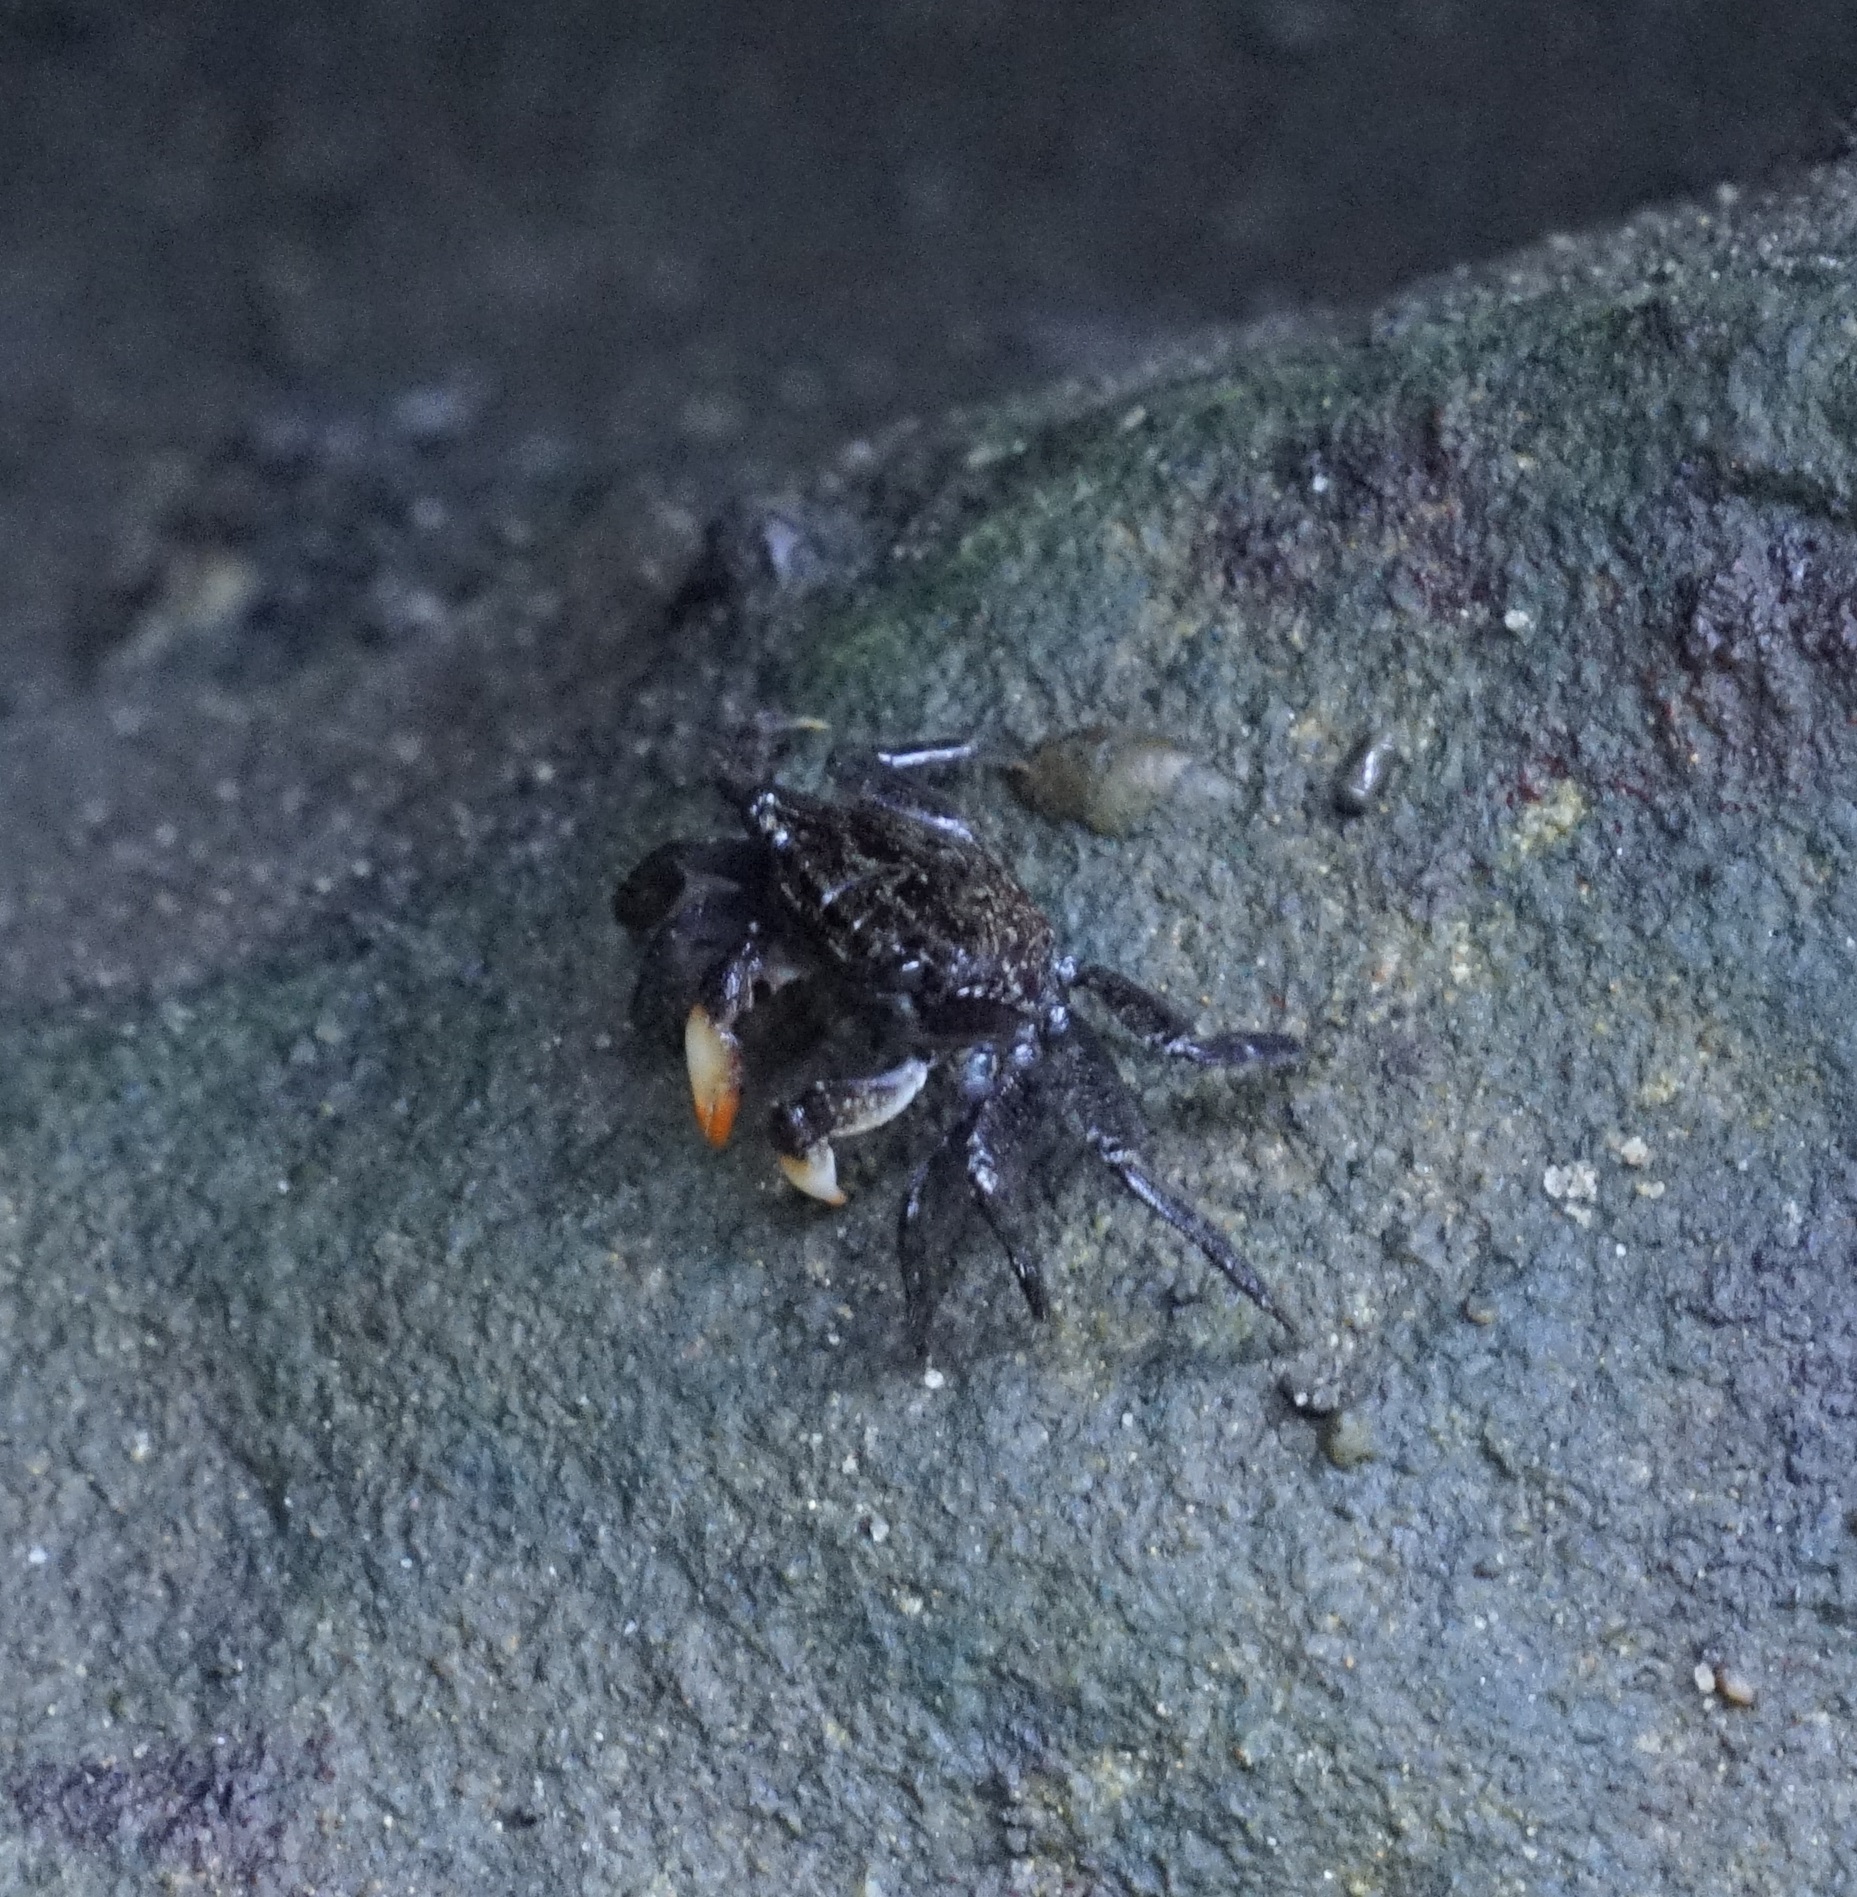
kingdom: Animalia
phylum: Arthropoda
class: Malacostraca
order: Decapoda
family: Heloeciidae
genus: Heloecius
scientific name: Heloecius cordiformis
